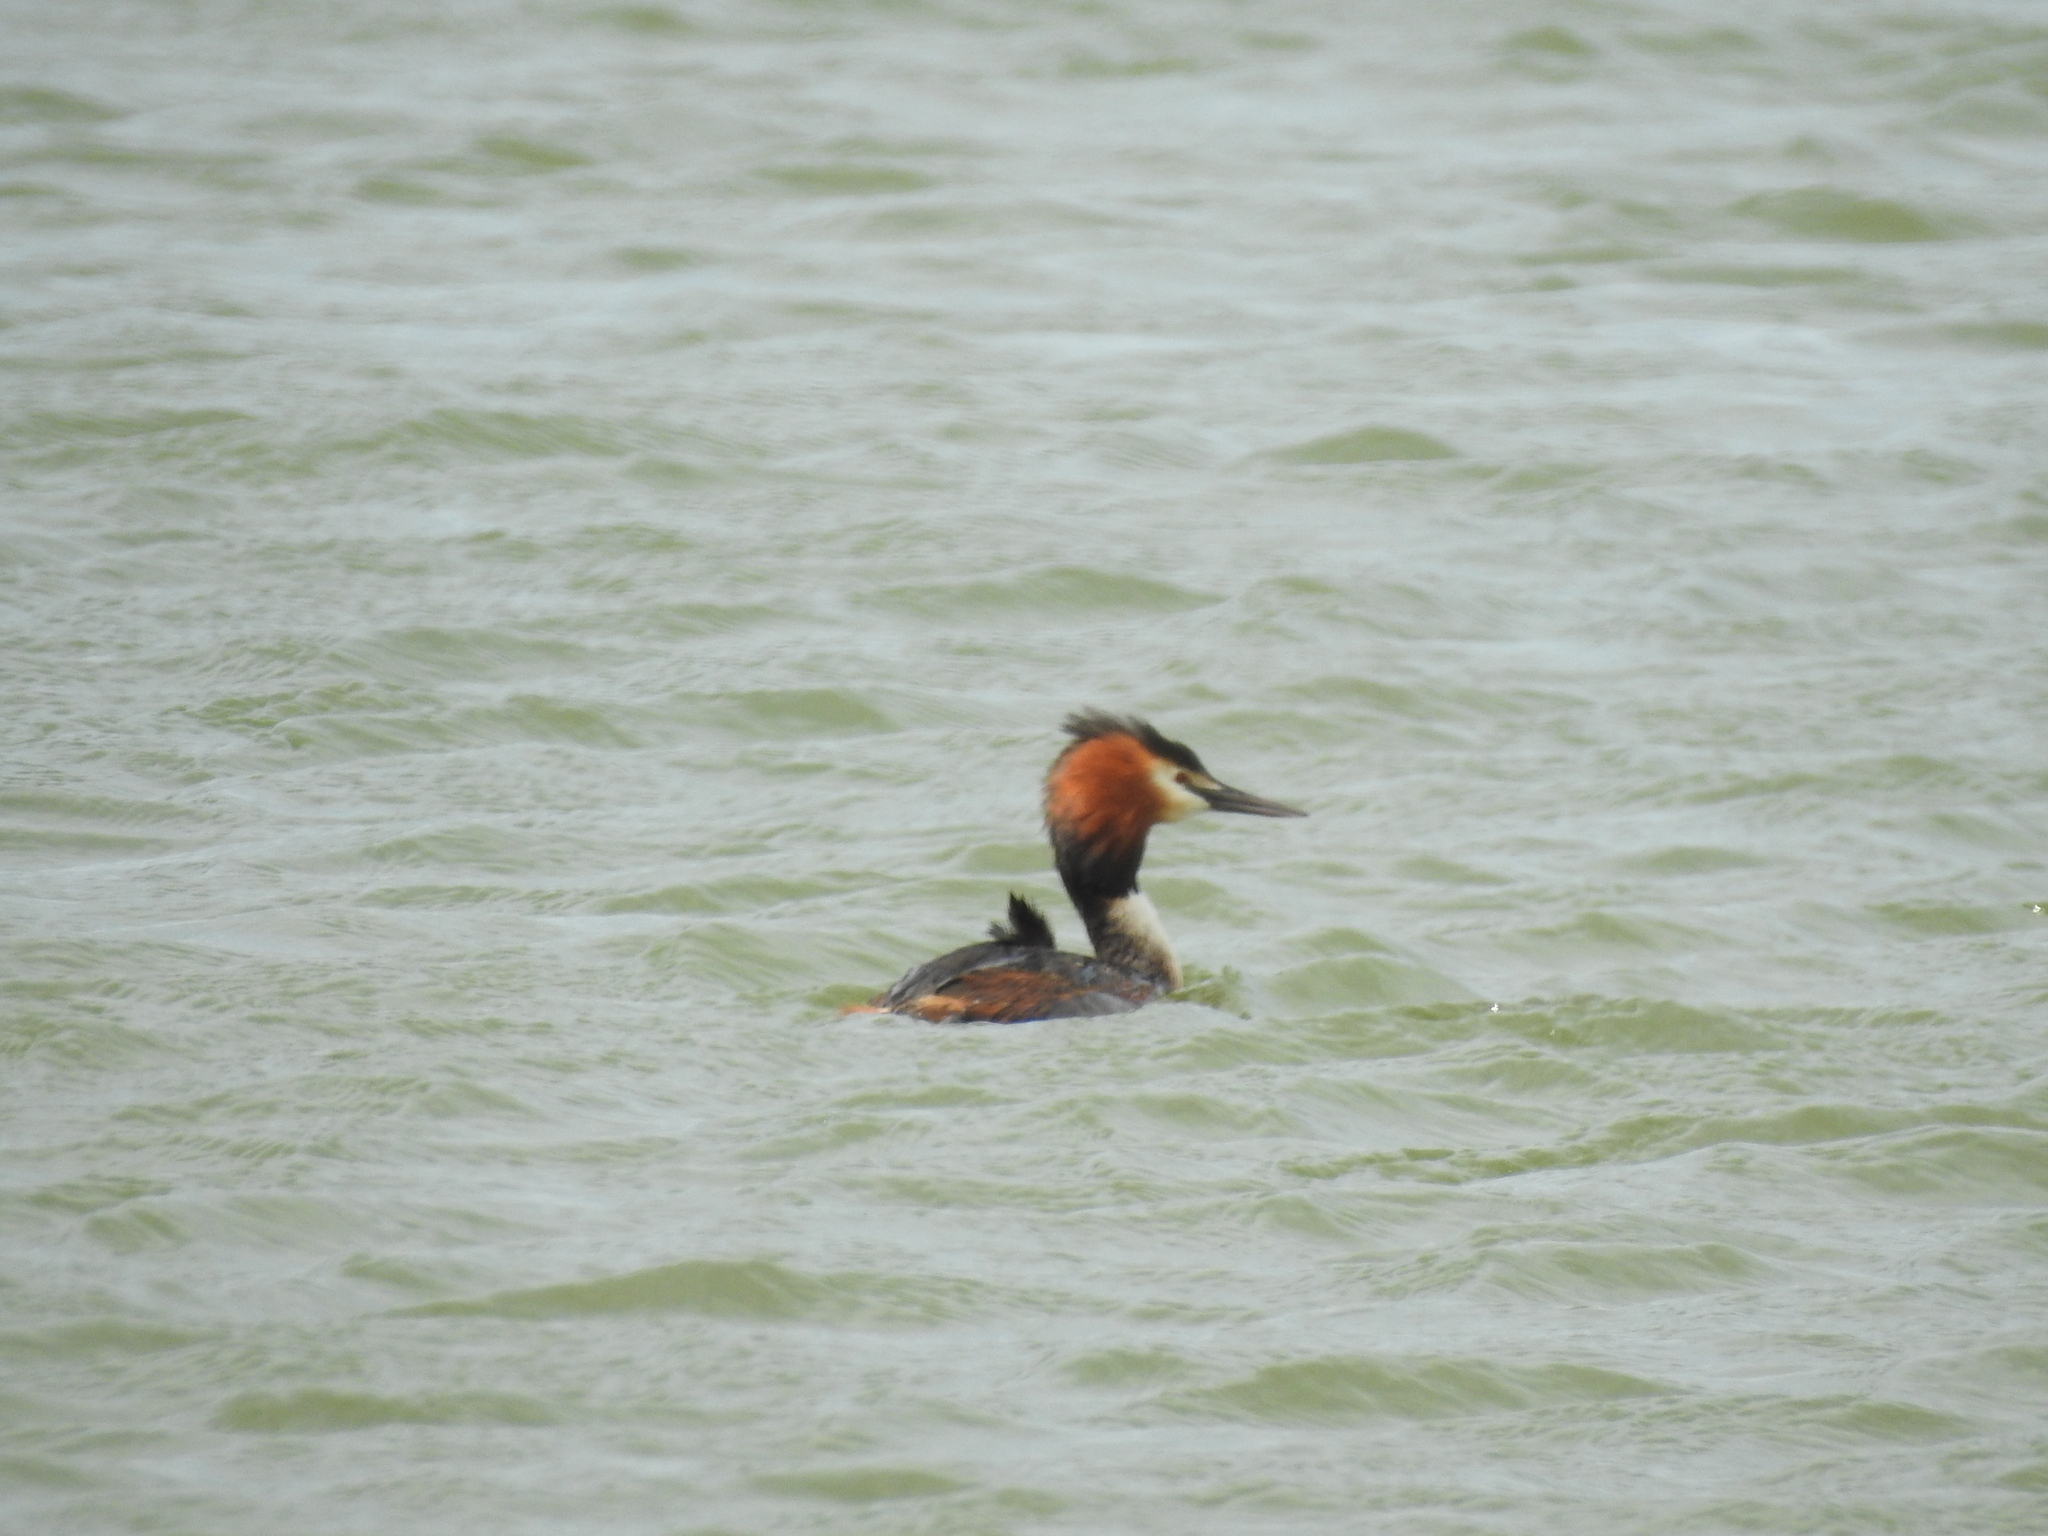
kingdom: Animalia
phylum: Chordata
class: Aves
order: Podicipediformes
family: Podicipedidae
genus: Podiceps
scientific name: Podiceps cristatus
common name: Great crested grebe
